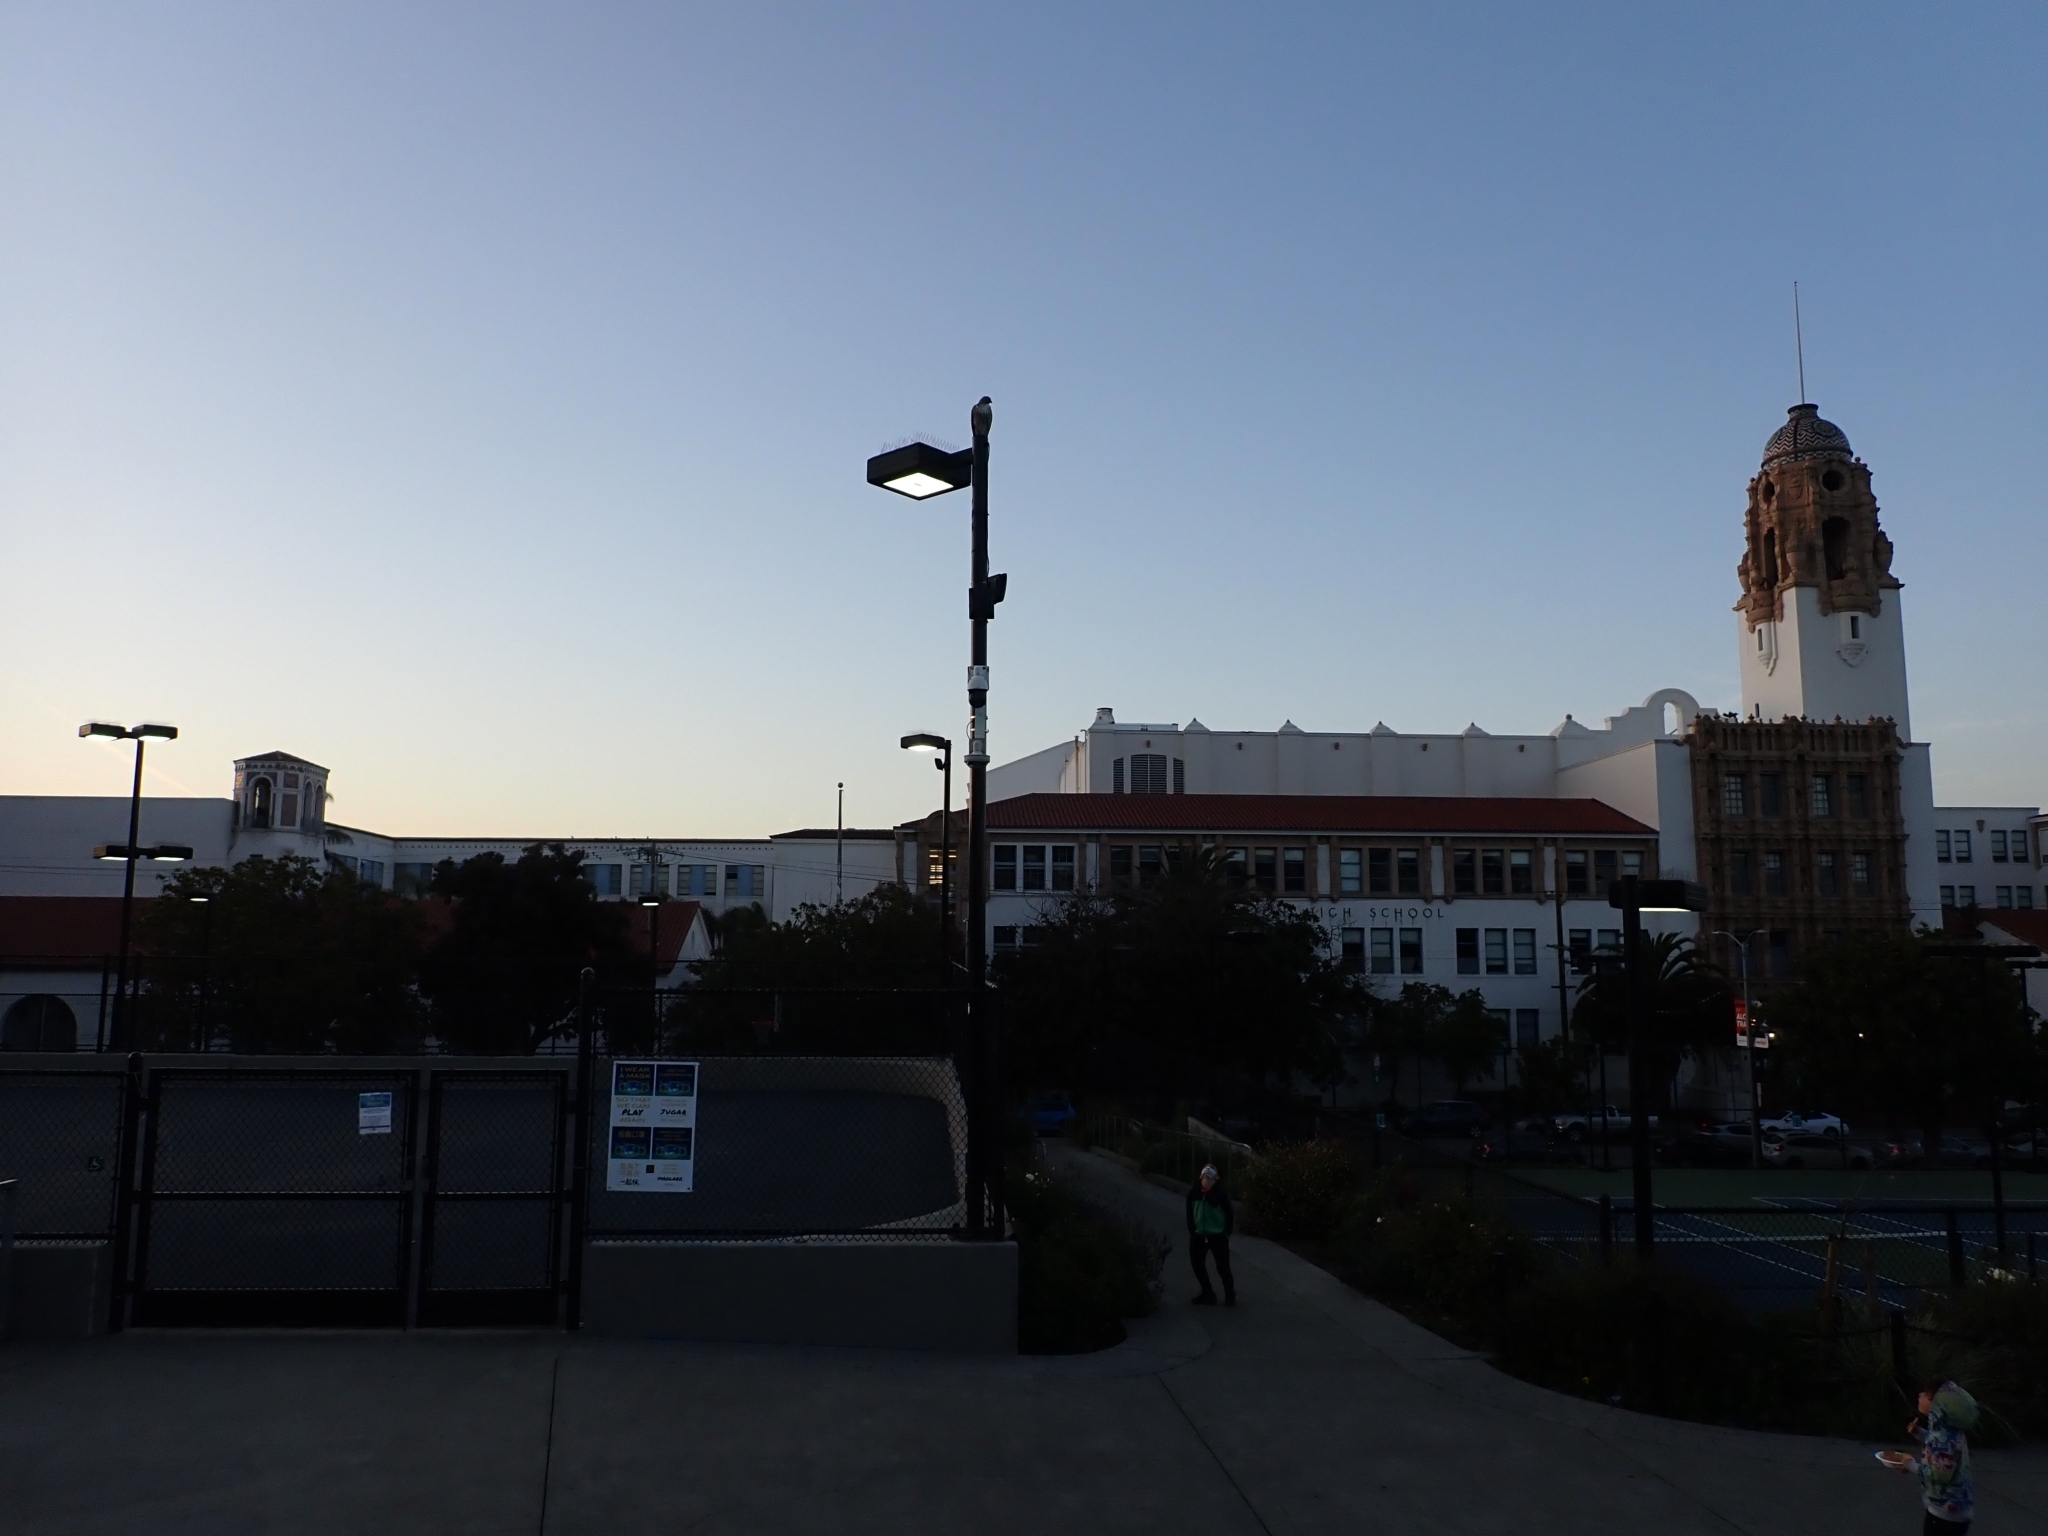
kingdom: Animalia
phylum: Chordata
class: Aves
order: Accipitriformes
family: Accipitridae
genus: Buteo
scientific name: Buteo jamaicensis
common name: Red-tailed hawk
